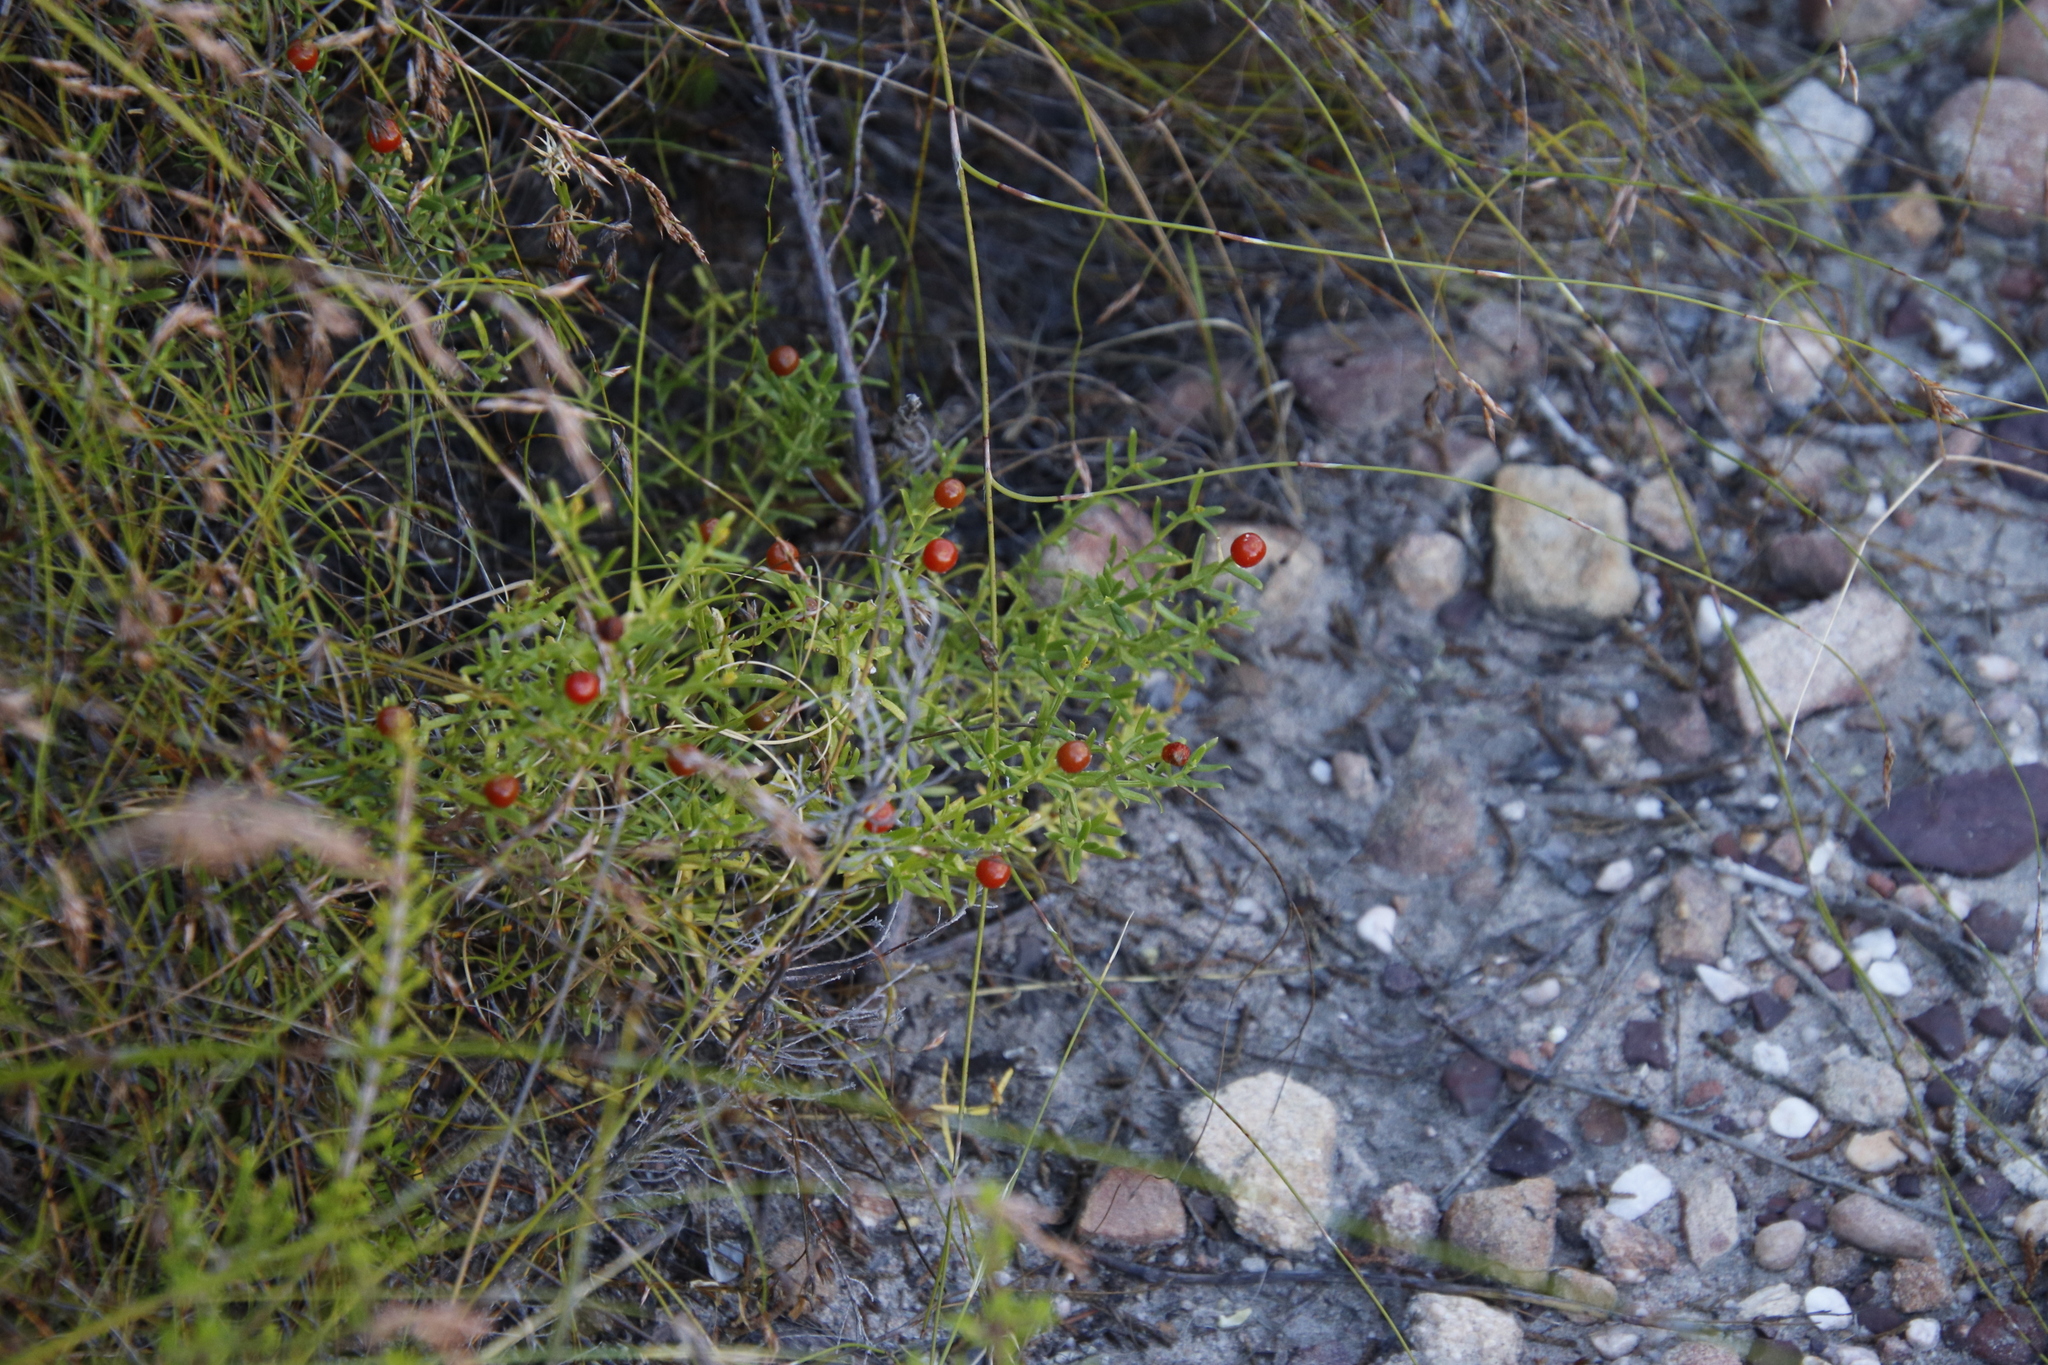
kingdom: Plantae
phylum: Tracheophyta
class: Magnoliopsida
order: Gentianales
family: Gentianaceae
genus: Chironia
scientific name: Chironia baccifera
